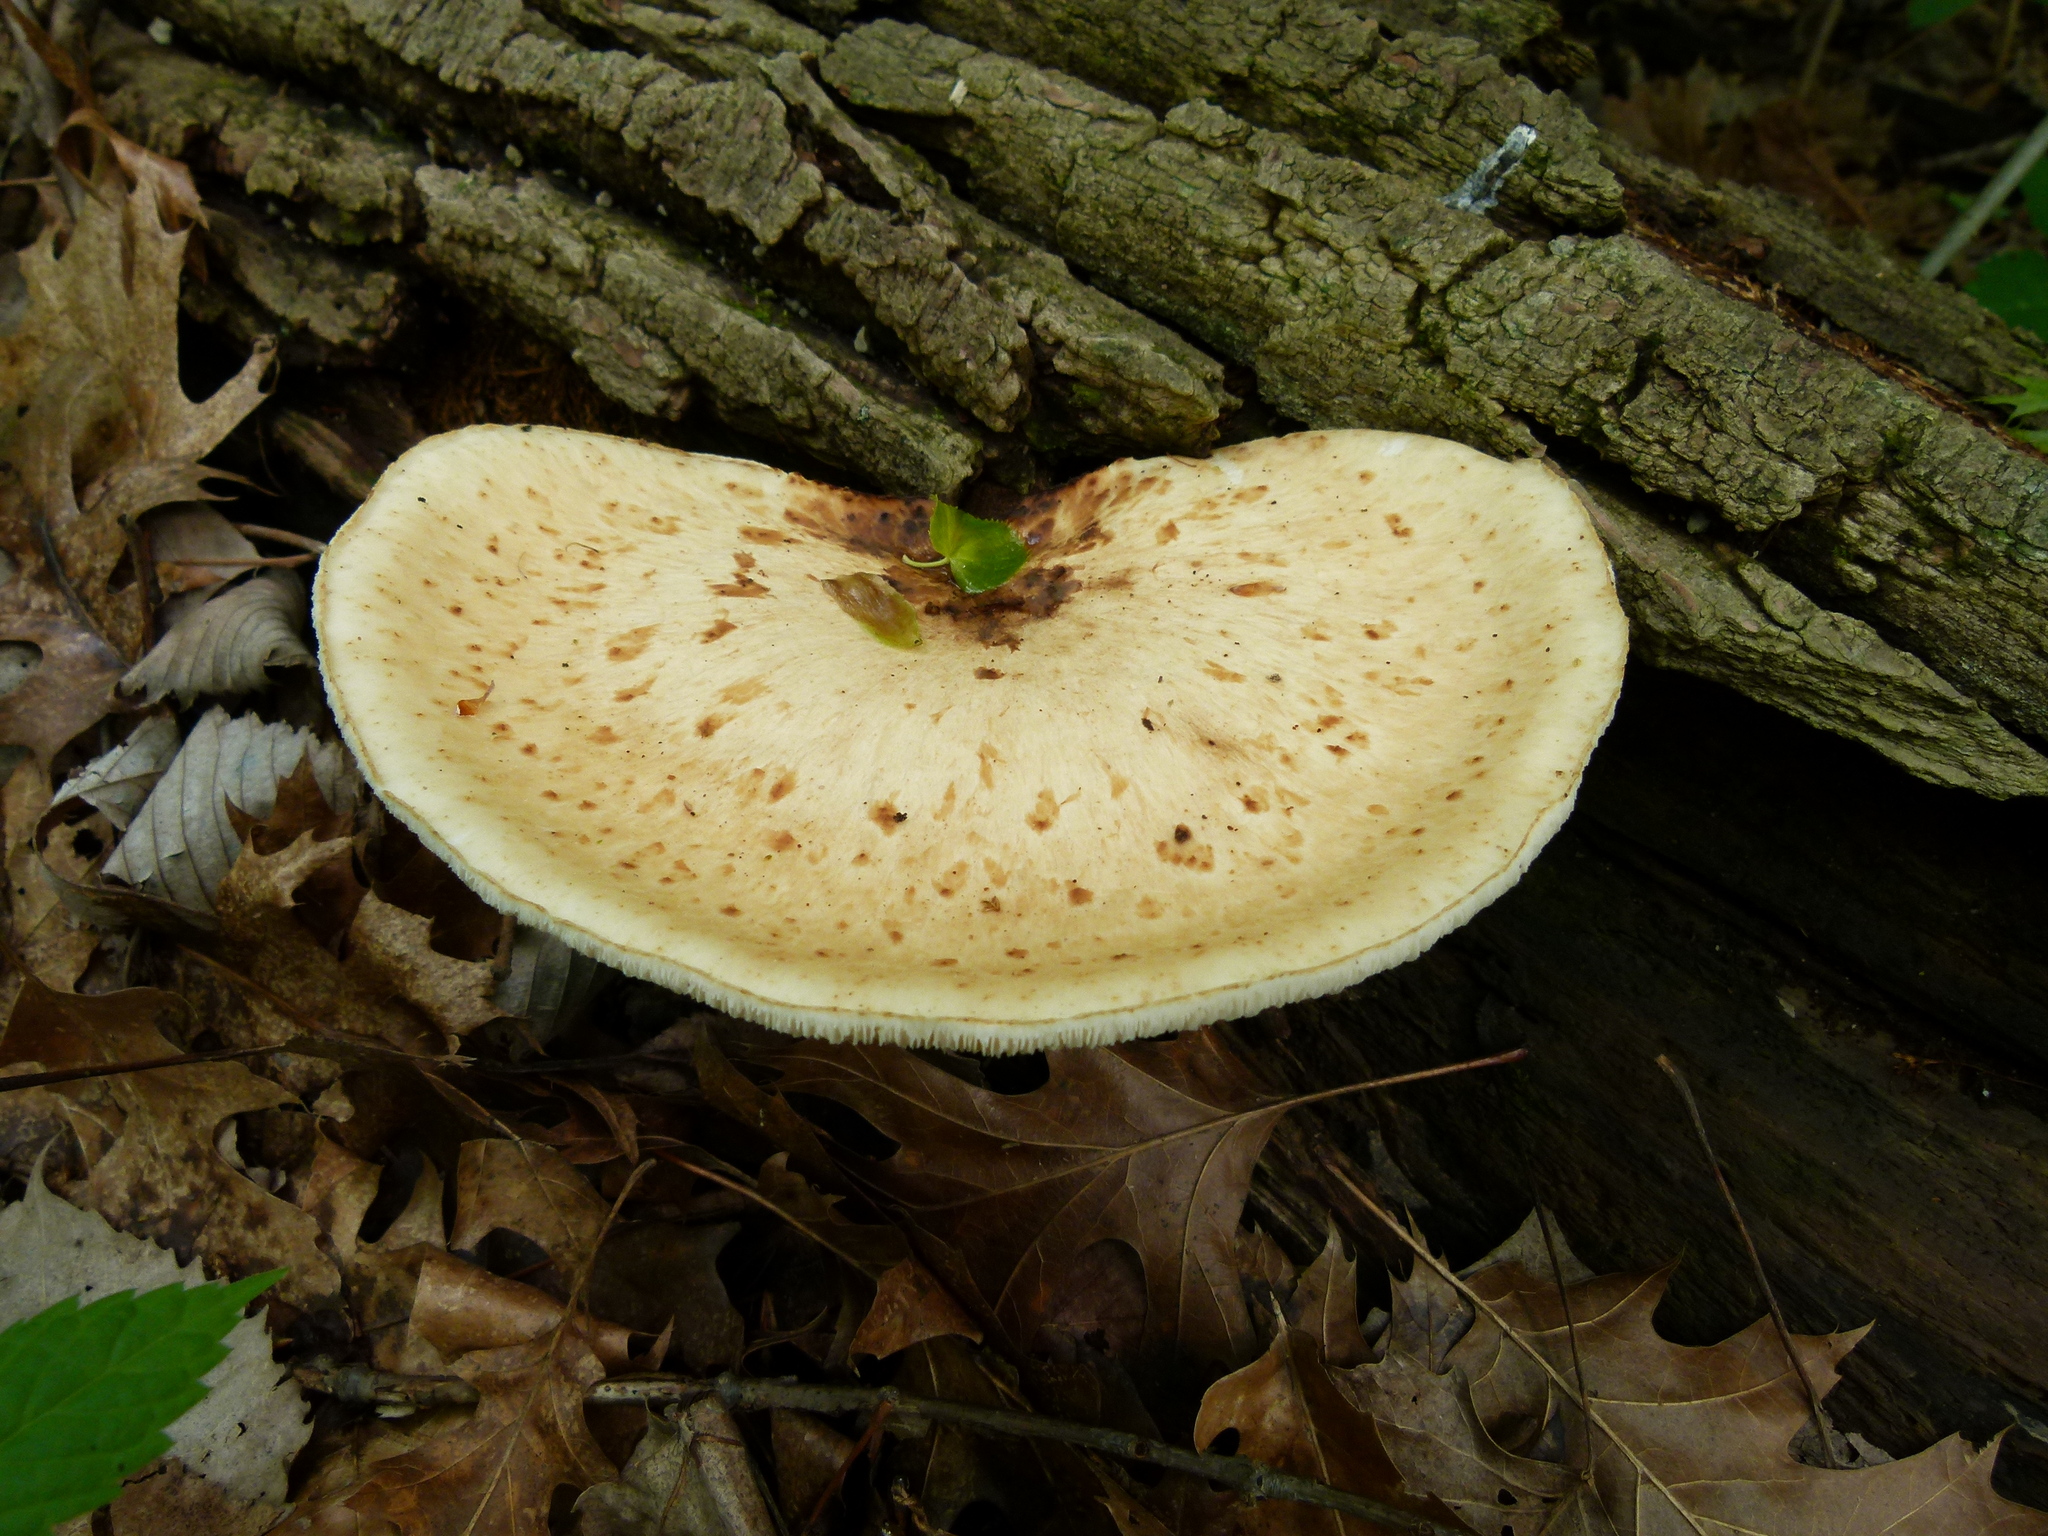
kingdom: Fungi
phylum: Basidiomycota
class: Agaricomycetes
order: Polyporales
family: Polyporaceae
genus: Cerioporus
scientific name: Cerioporus squamosus
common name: Dryad's saddle
